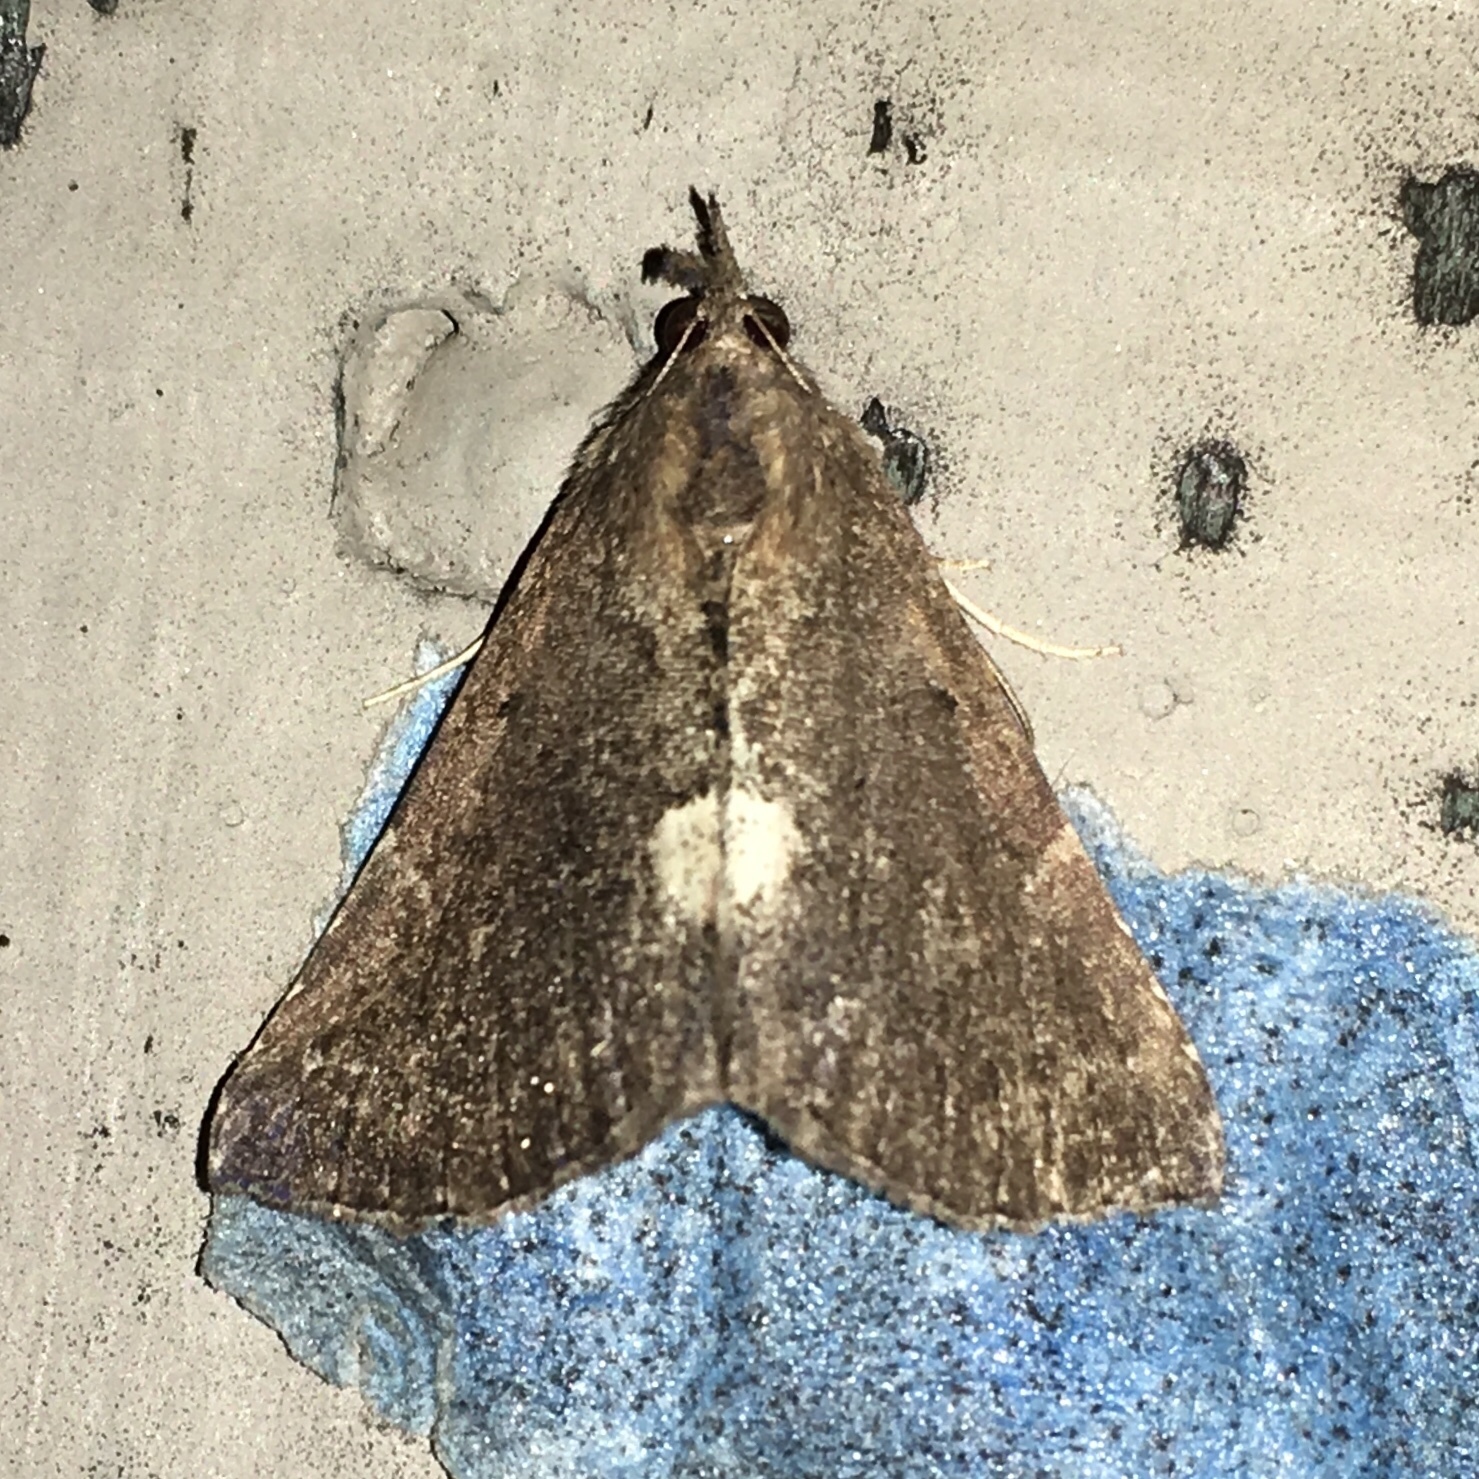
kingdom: Animalia
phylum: Arthropoda
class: Insecta
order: Lepidoptera
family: Erebidae
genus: Hypena
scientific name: Hypena bijugalis
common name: Dimorphic bomolocha moth
